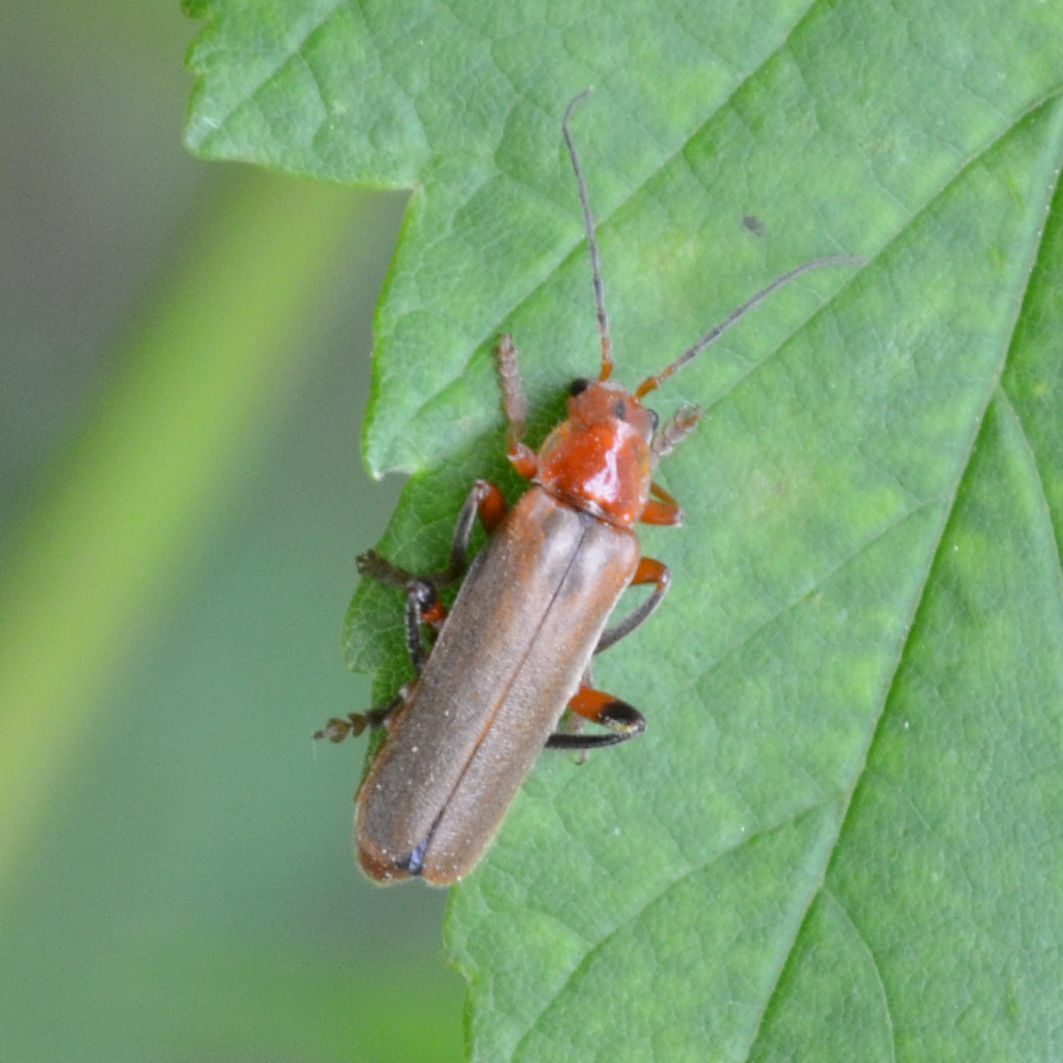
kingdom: Animalia
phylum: Arthropoda
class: Insecta
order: Coleoptera
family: Cantharidae
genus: Cantharis
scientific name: Cantharis livida
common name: Livid soldier beetle
